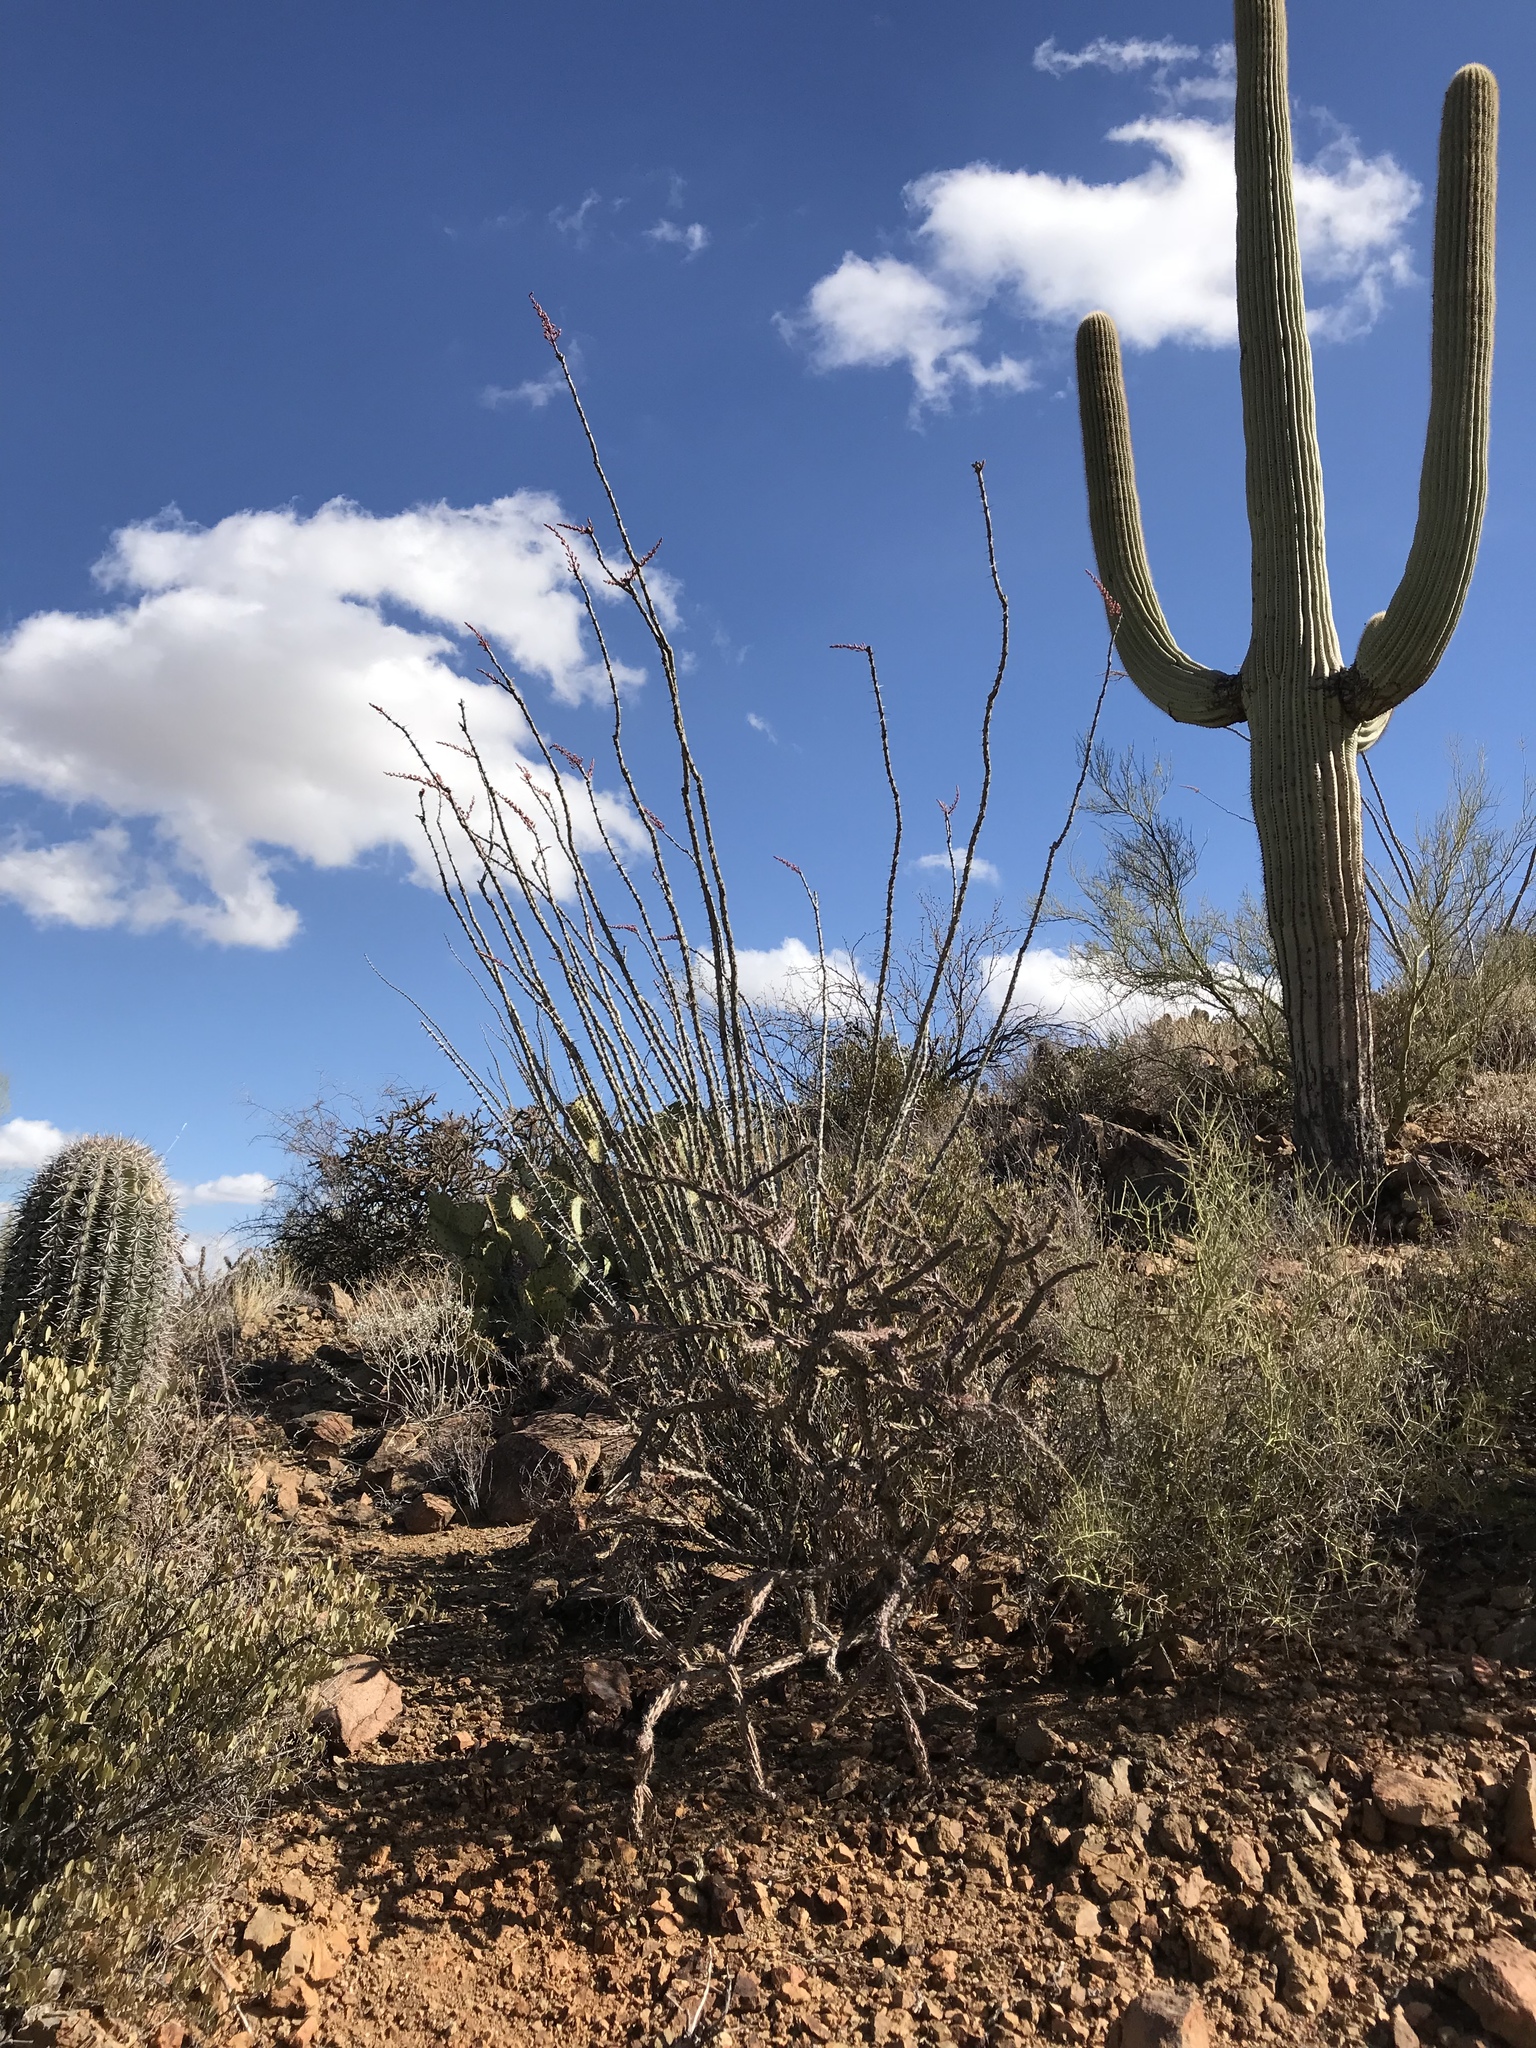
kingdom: Plantae
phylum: Tracheophyta
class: Magnoliopsida
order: Ericales
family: Fouquieriaceae
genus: Fouquieria
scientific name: Fouquieria splendens
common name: Vine-cactus
